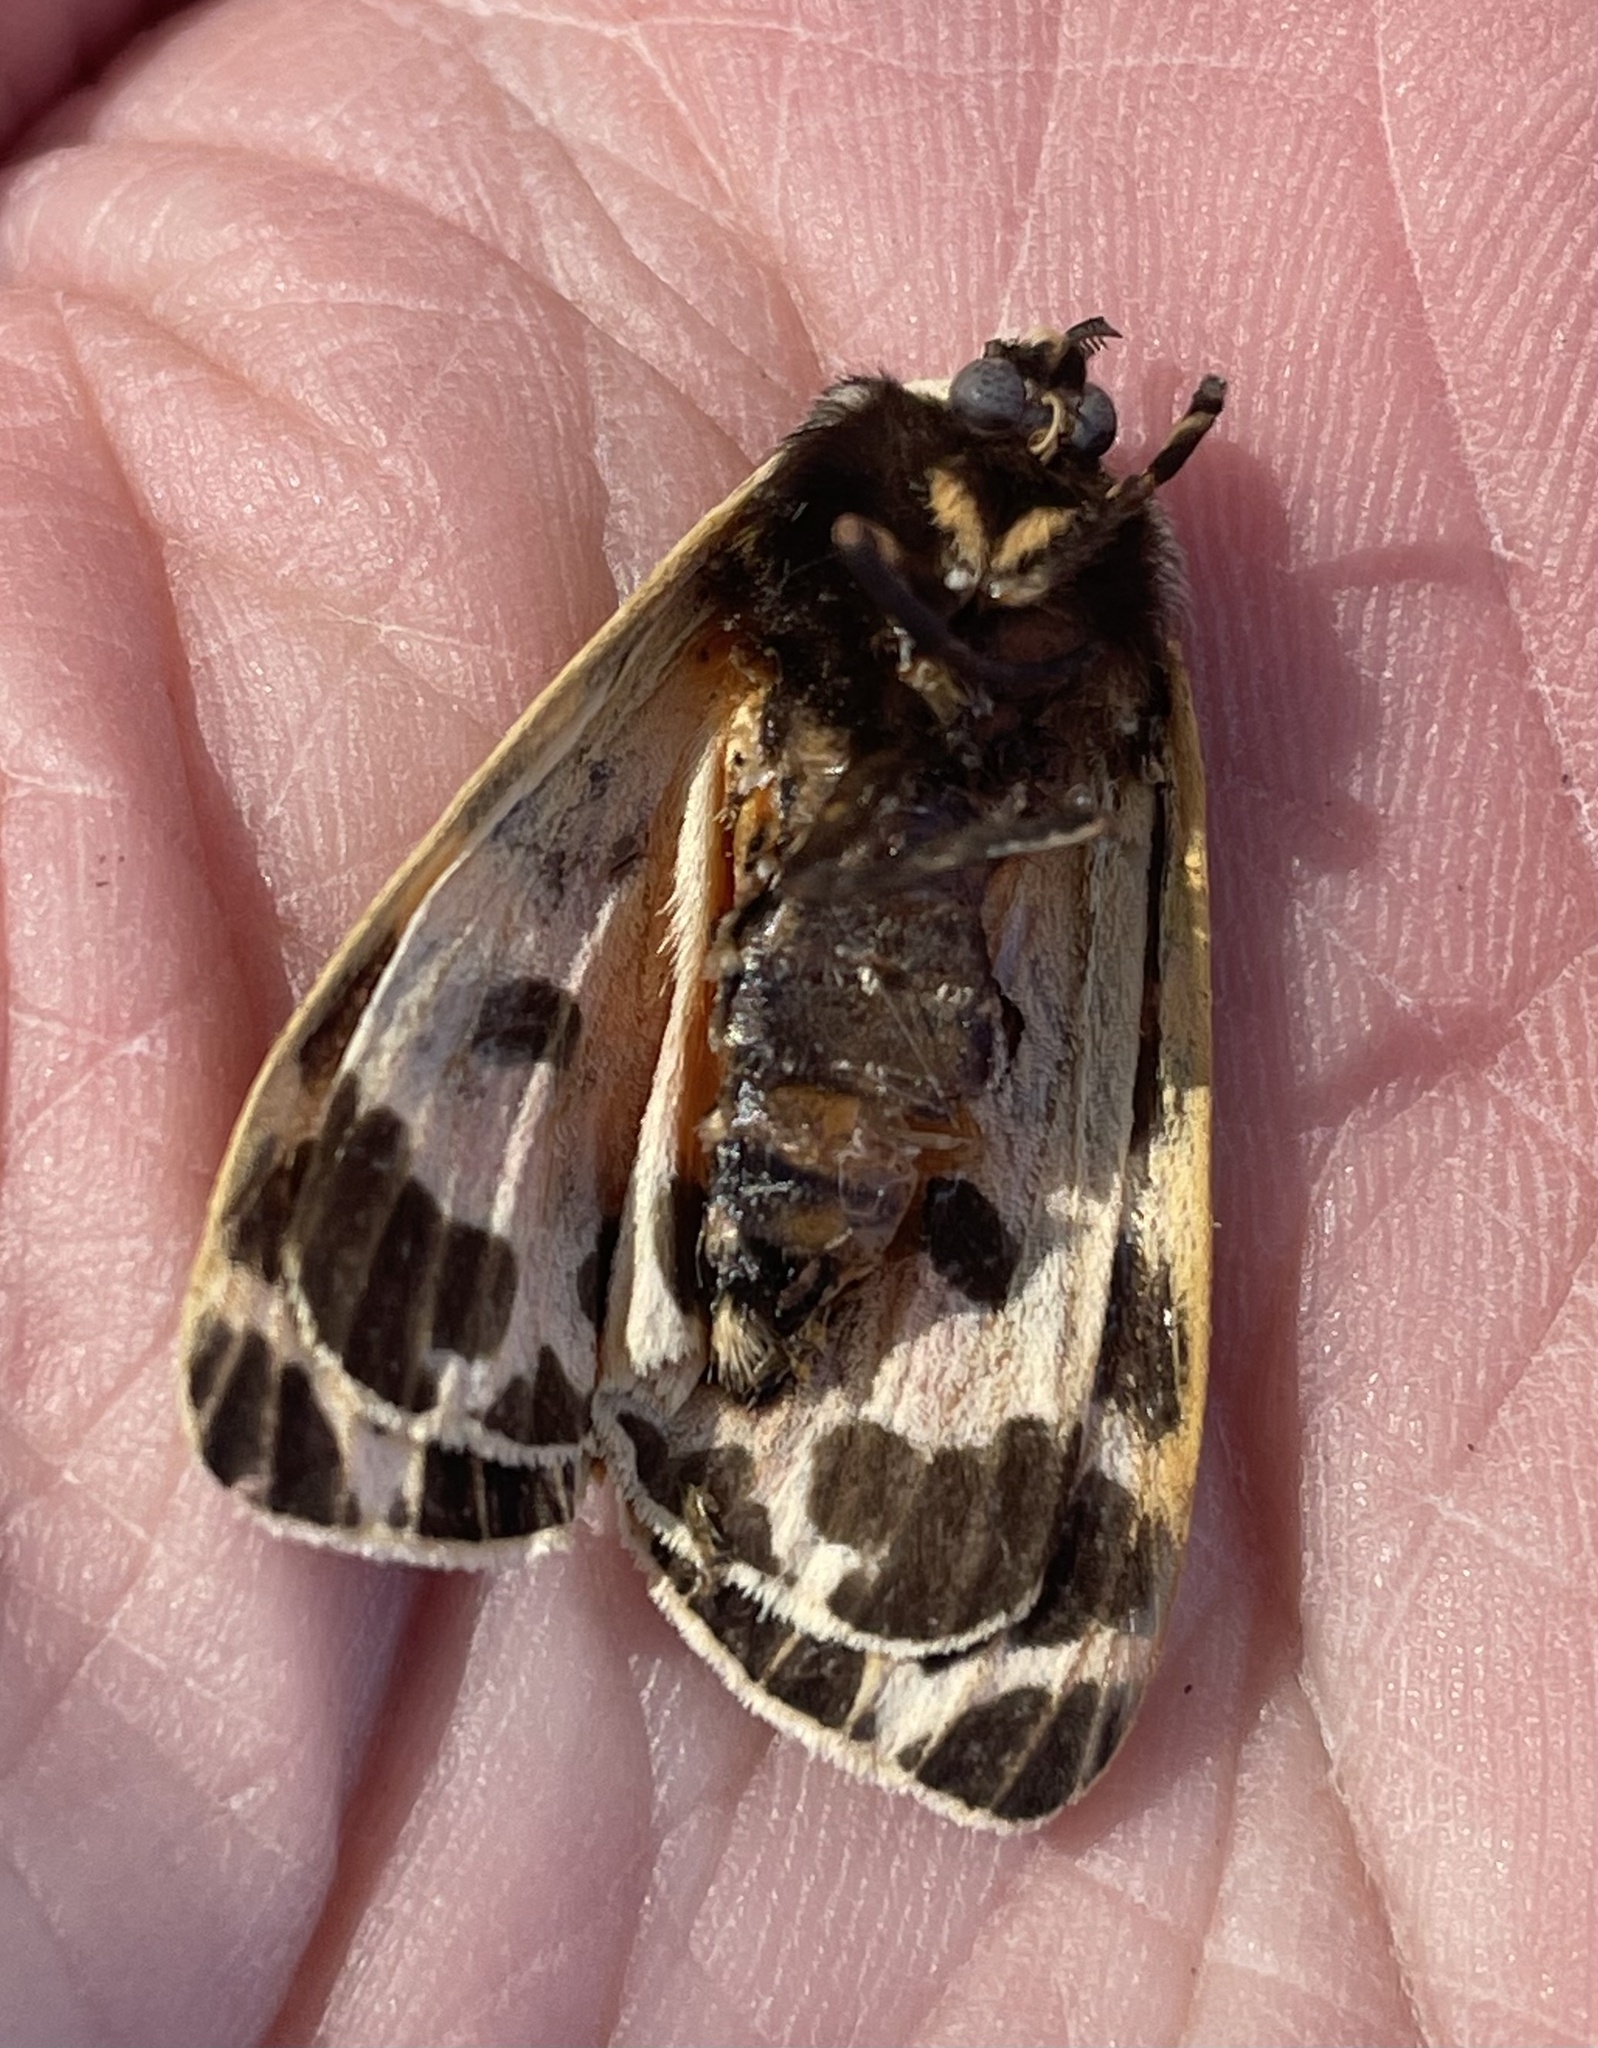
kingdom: Animalia
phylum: Arthropoda
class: Insecta
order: Lepidoptera
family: Erebidae
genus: Grammia
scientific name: Grammia parthenice
